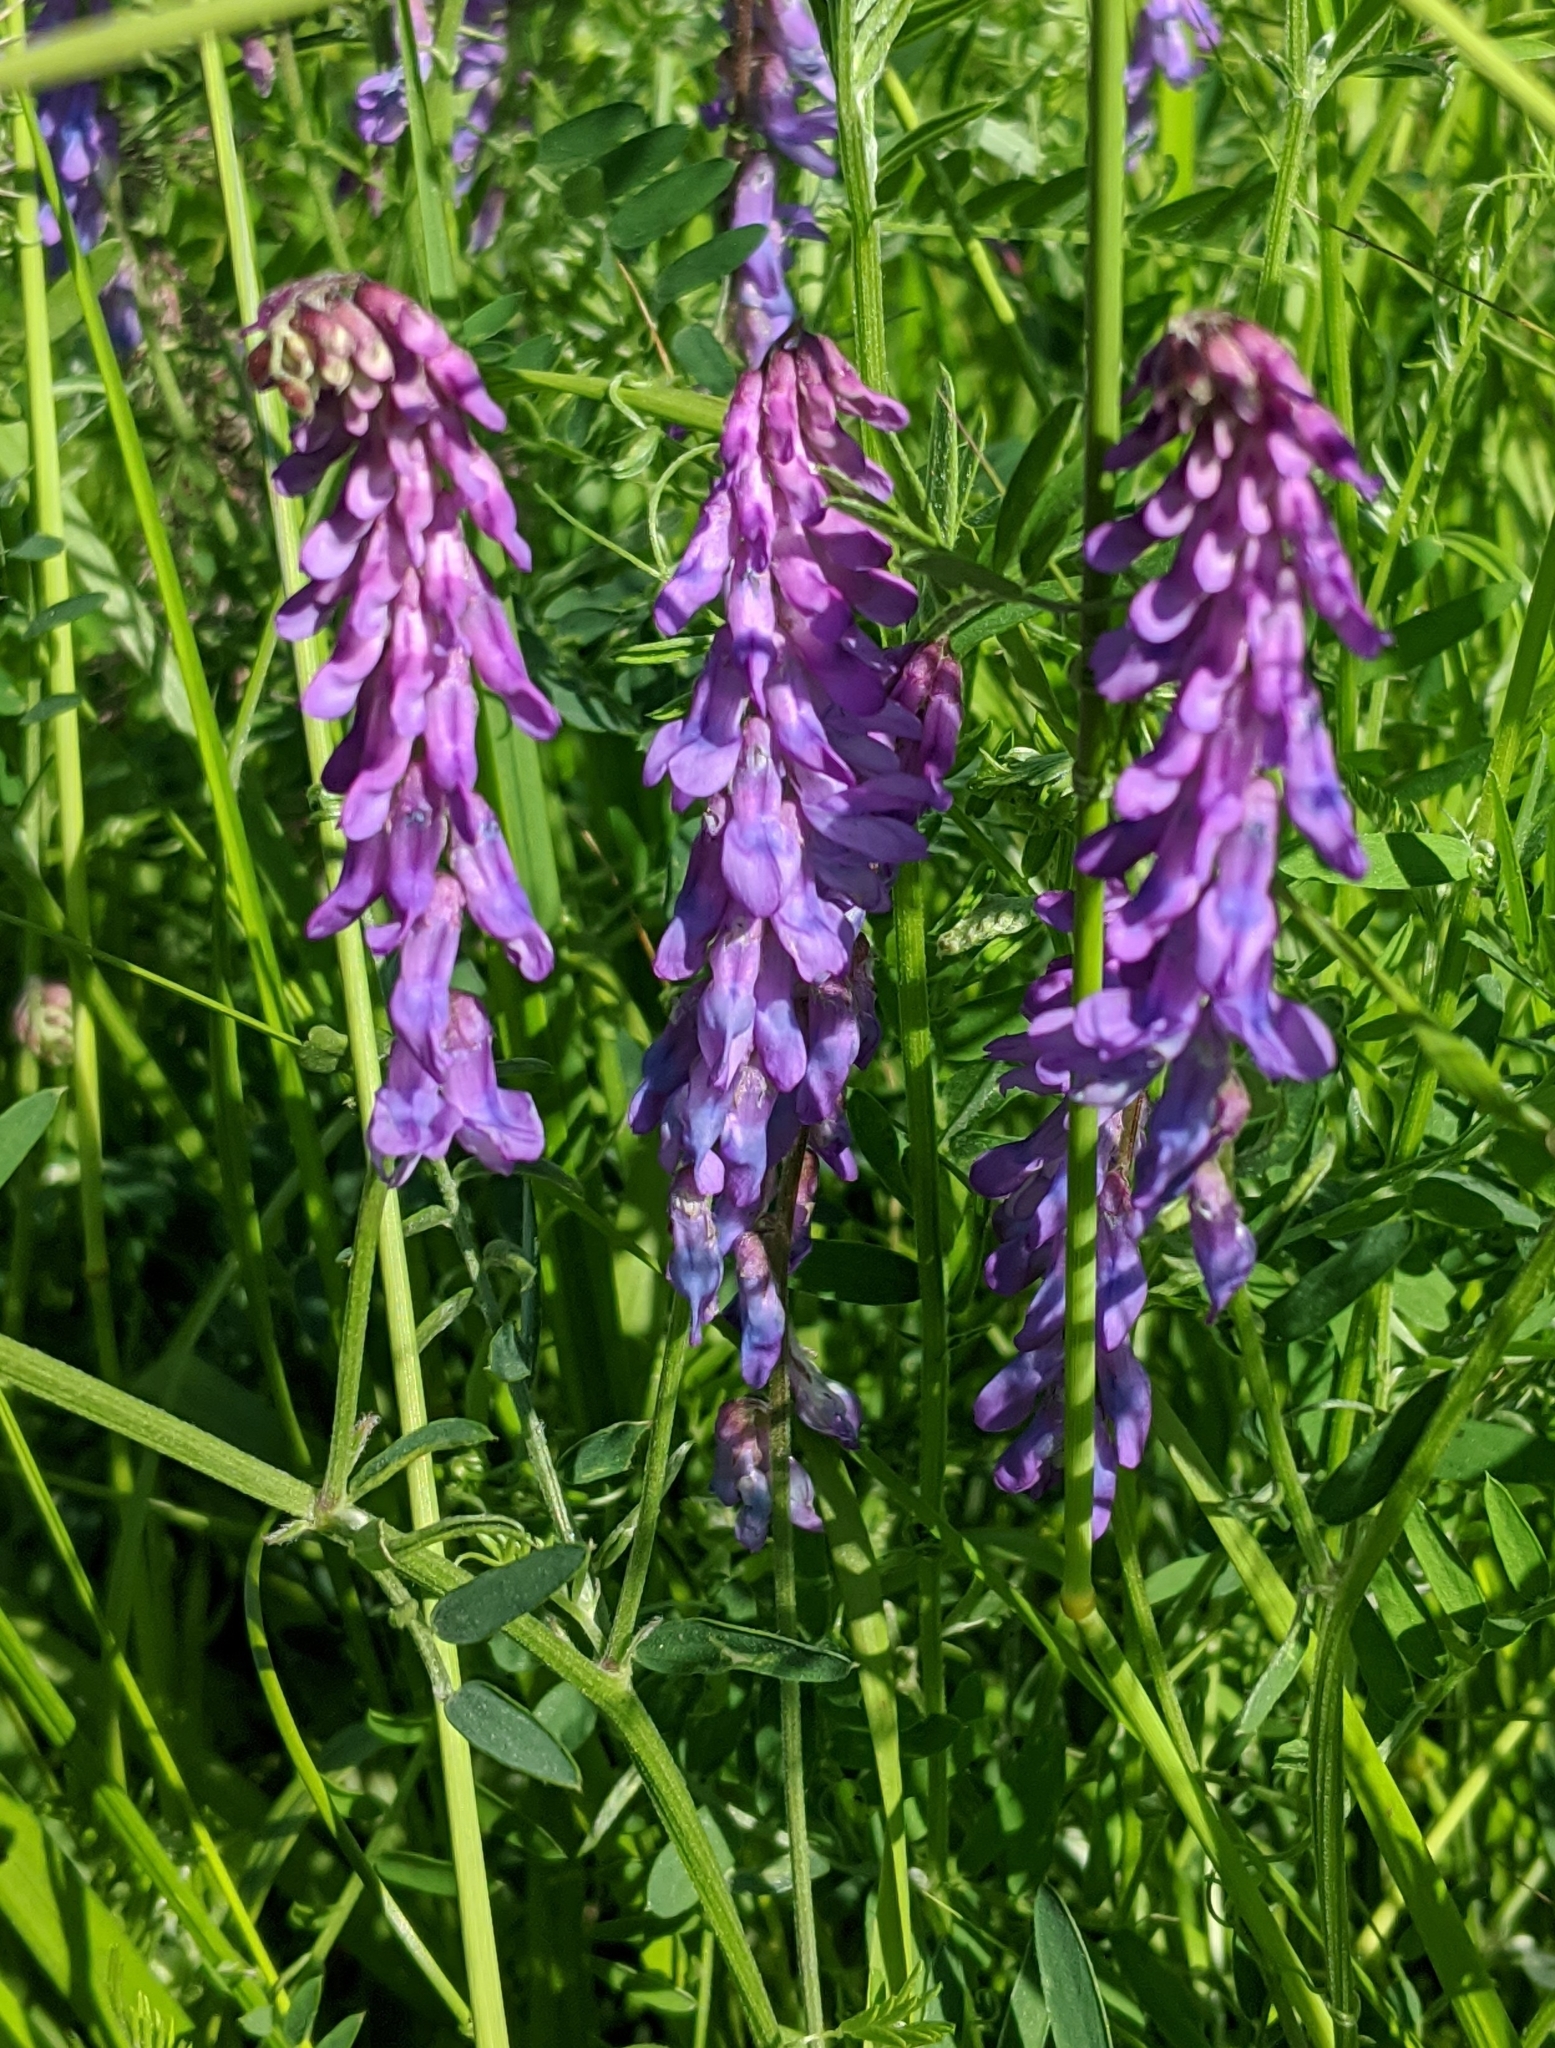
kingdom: Plantae
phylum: Tracheophyta
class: Magnoliopsida
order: Fabales
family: Fabaceae
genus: Vicia
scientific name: Vicia cracca
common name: Bird vetch
